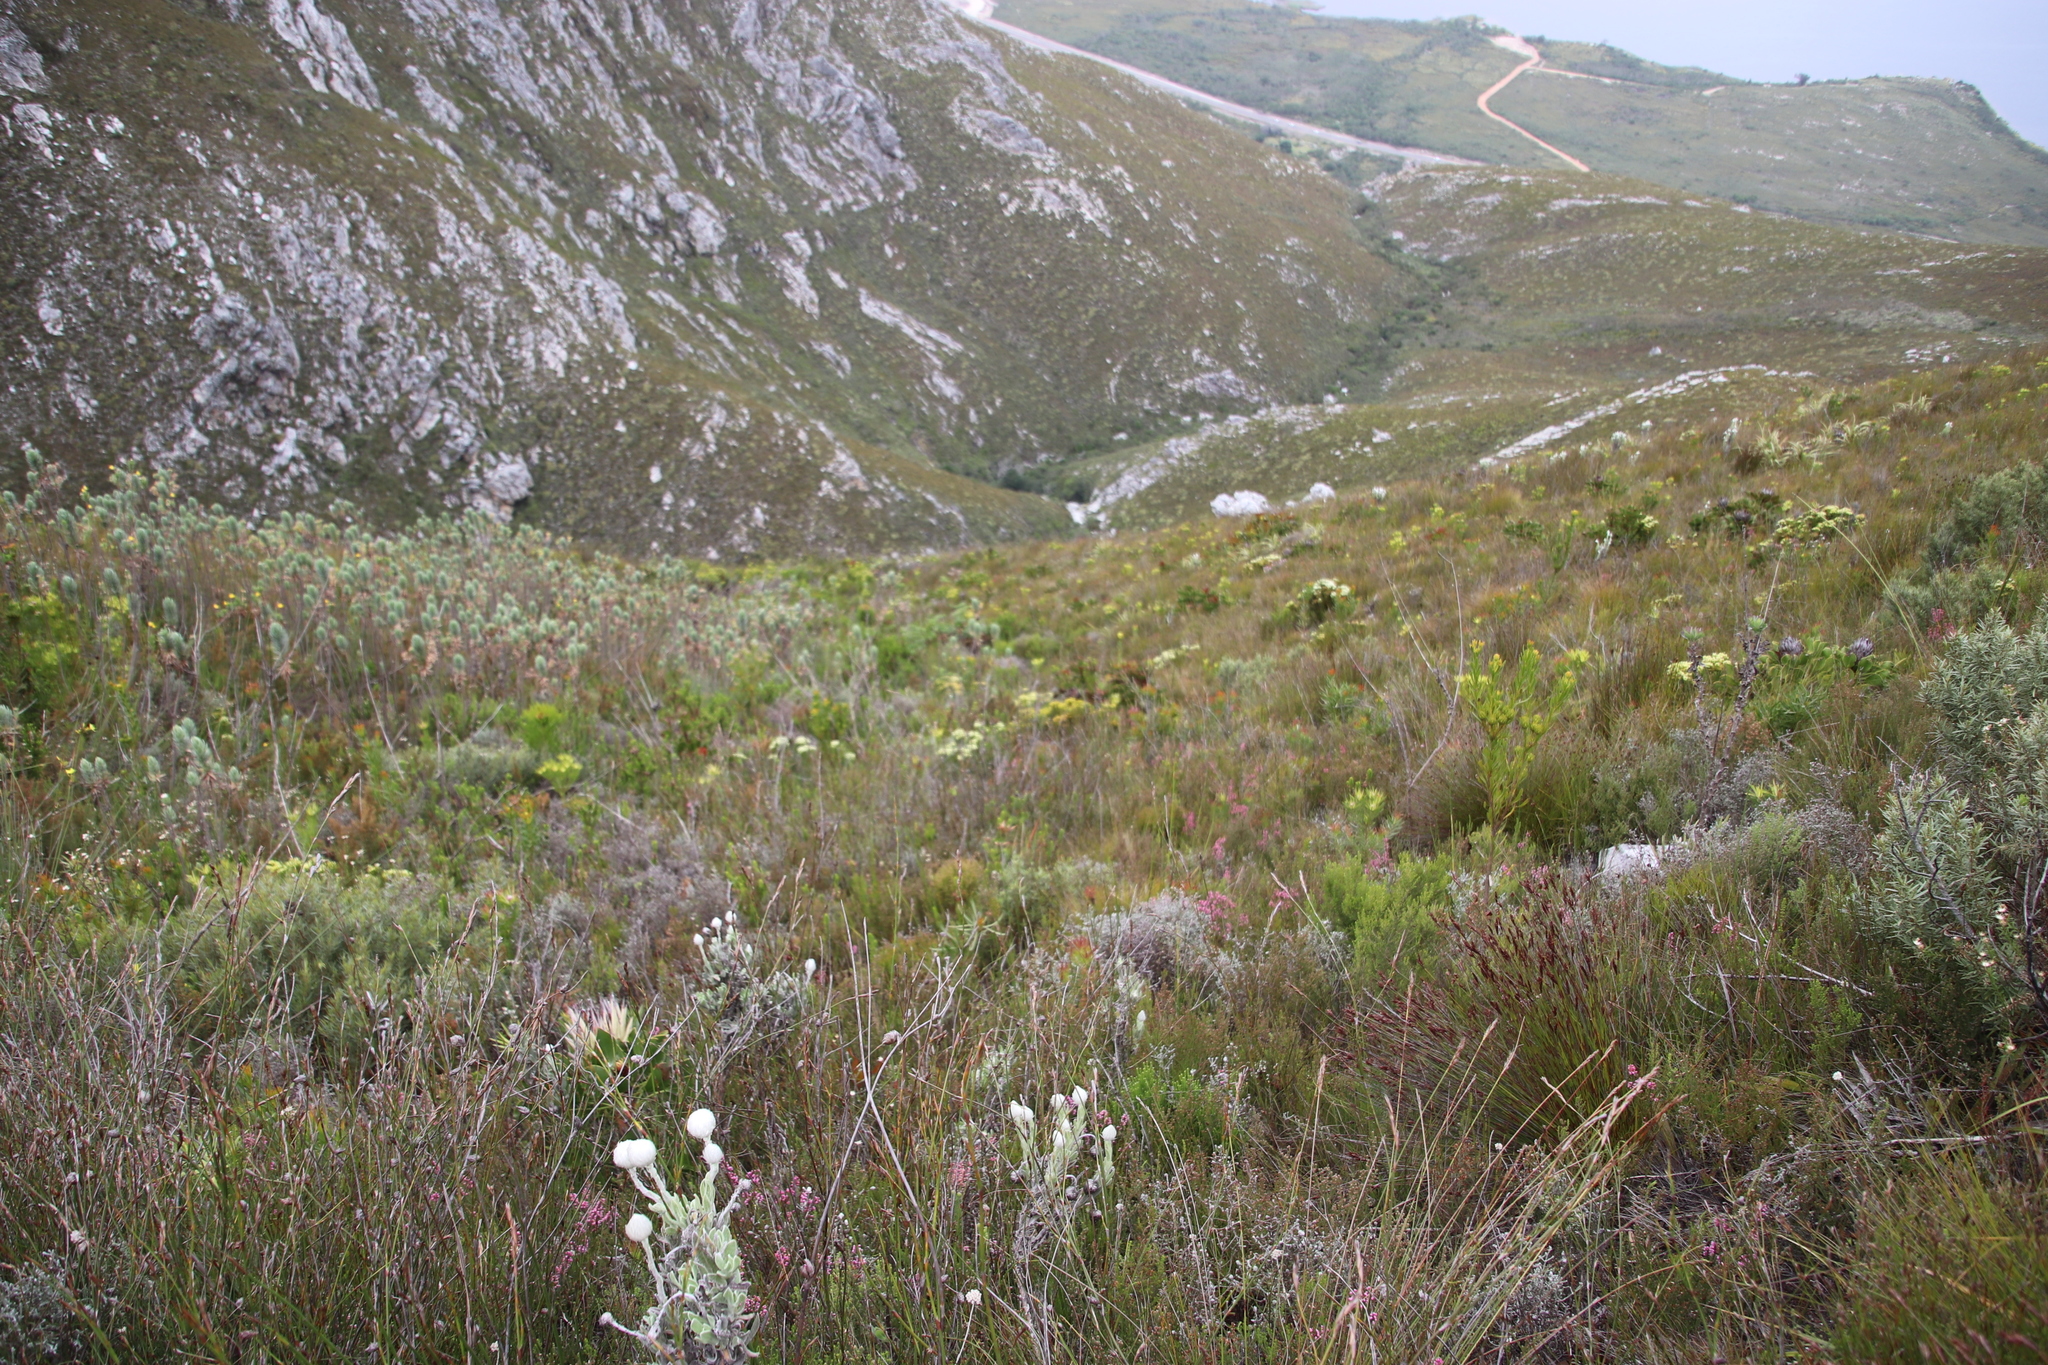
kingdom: Plantae
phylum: Tracheophyta
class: Magnoliopsida
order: Ericales
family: Ericaceae
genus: Erica
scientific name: Erica corifolia
